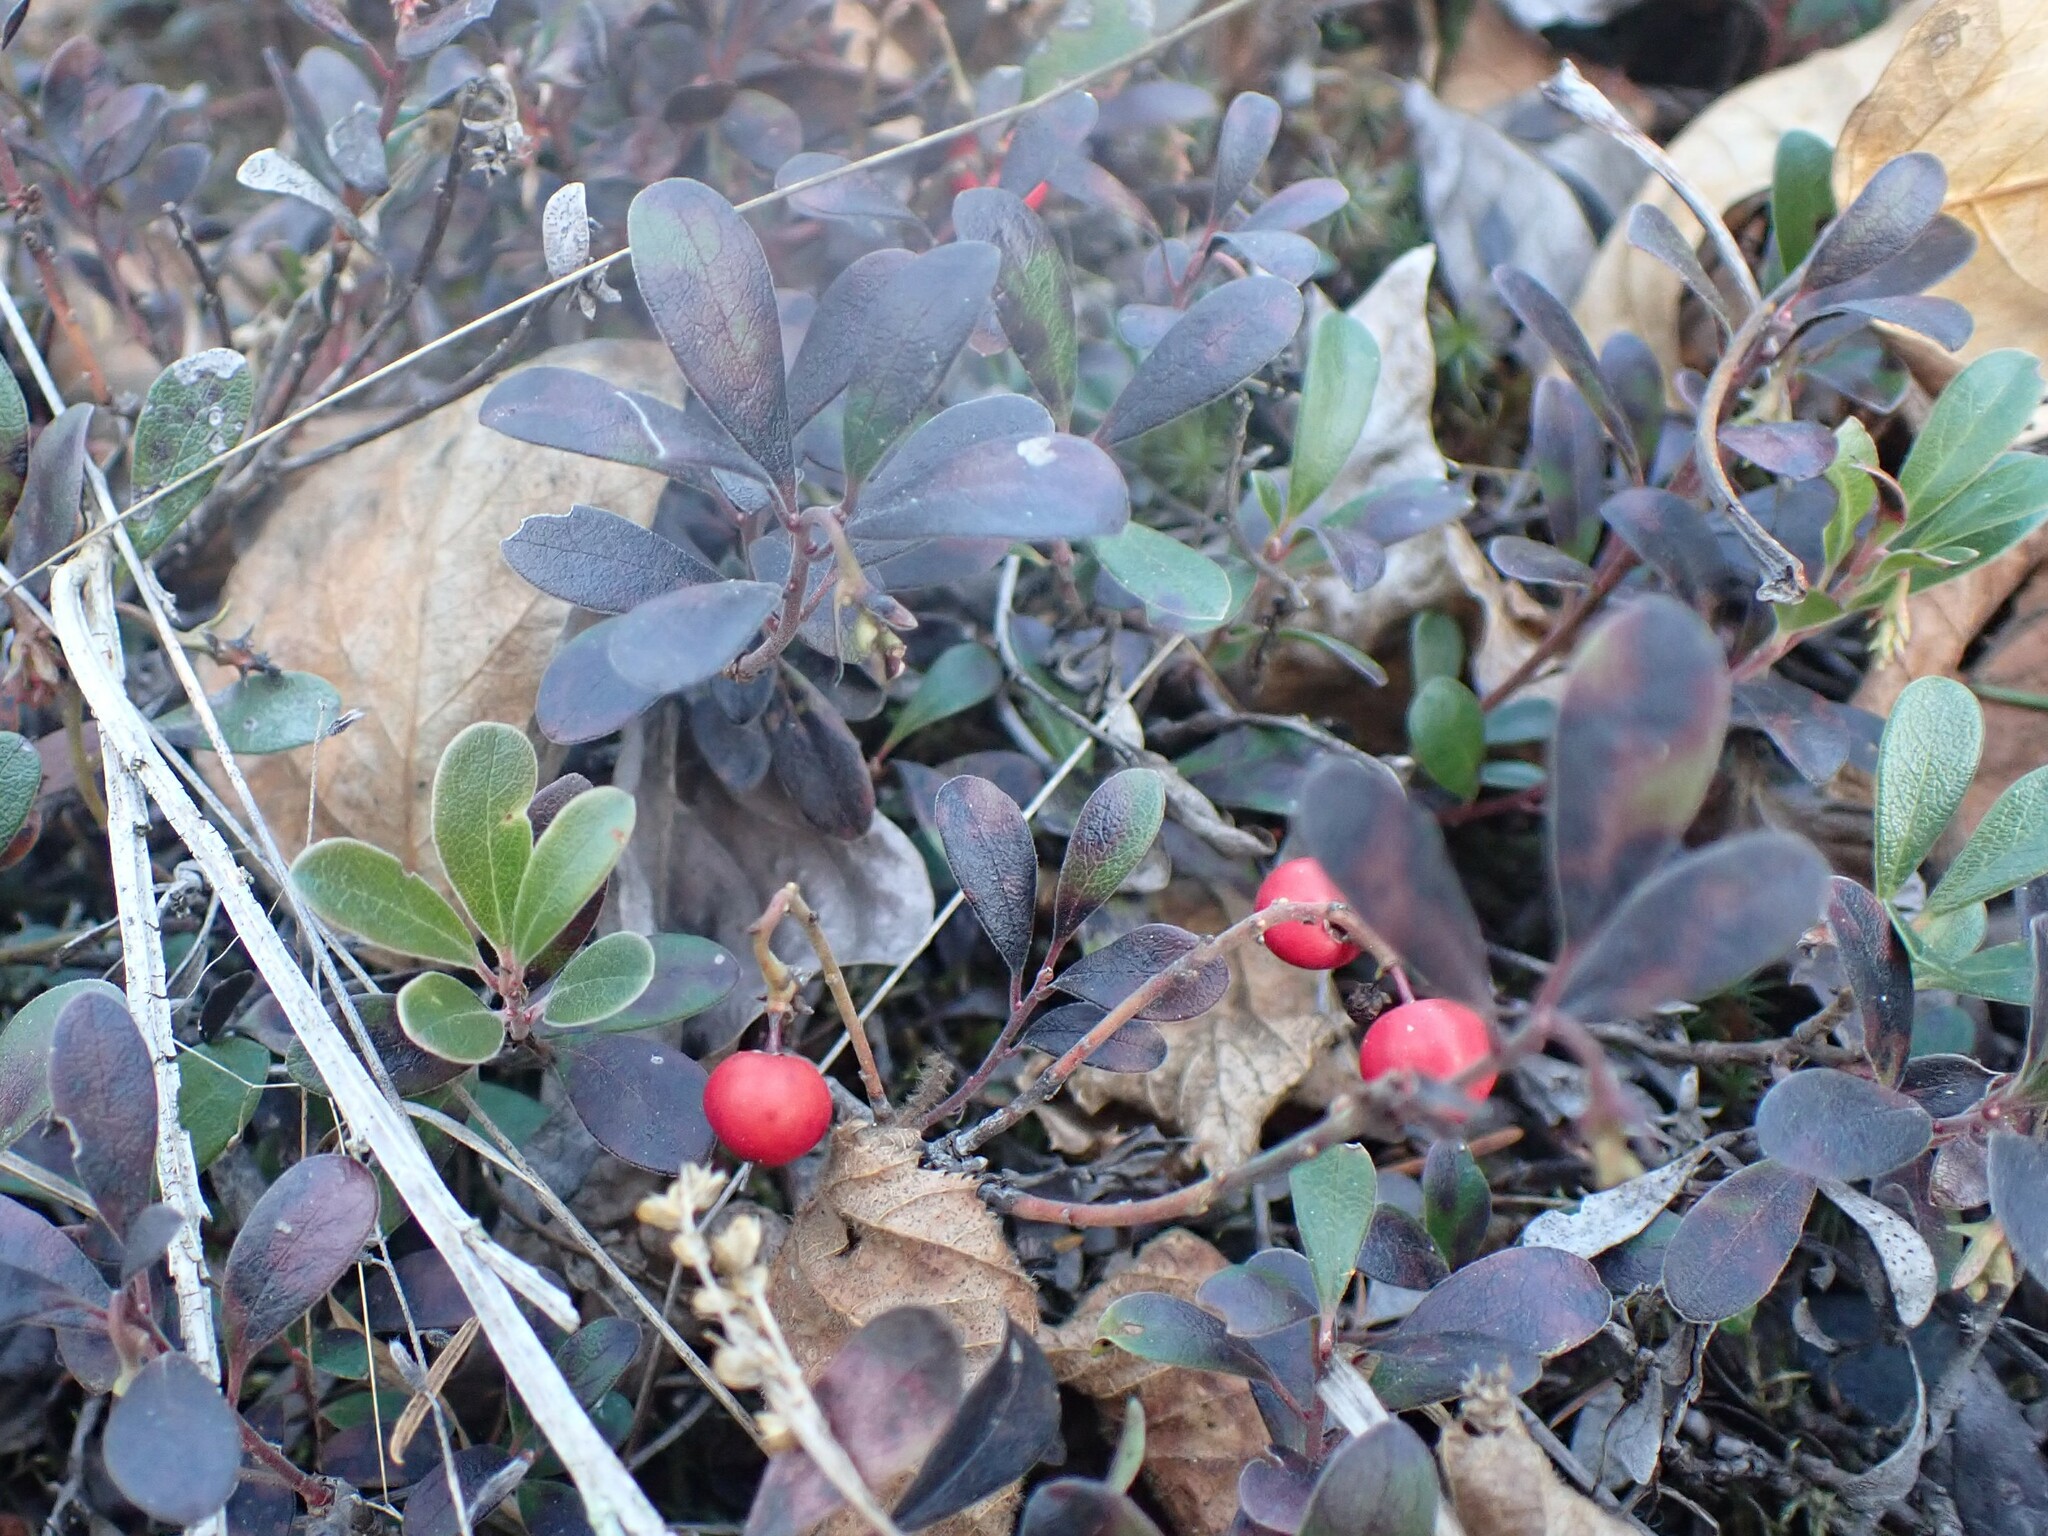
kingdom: Plantae
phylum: Tracheophyta
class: Magnoliopsida
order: Ericales
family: Ericaceae
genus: Arctostaphylos
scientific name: Arctostaphylos uva-ursi
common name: Bearberry
